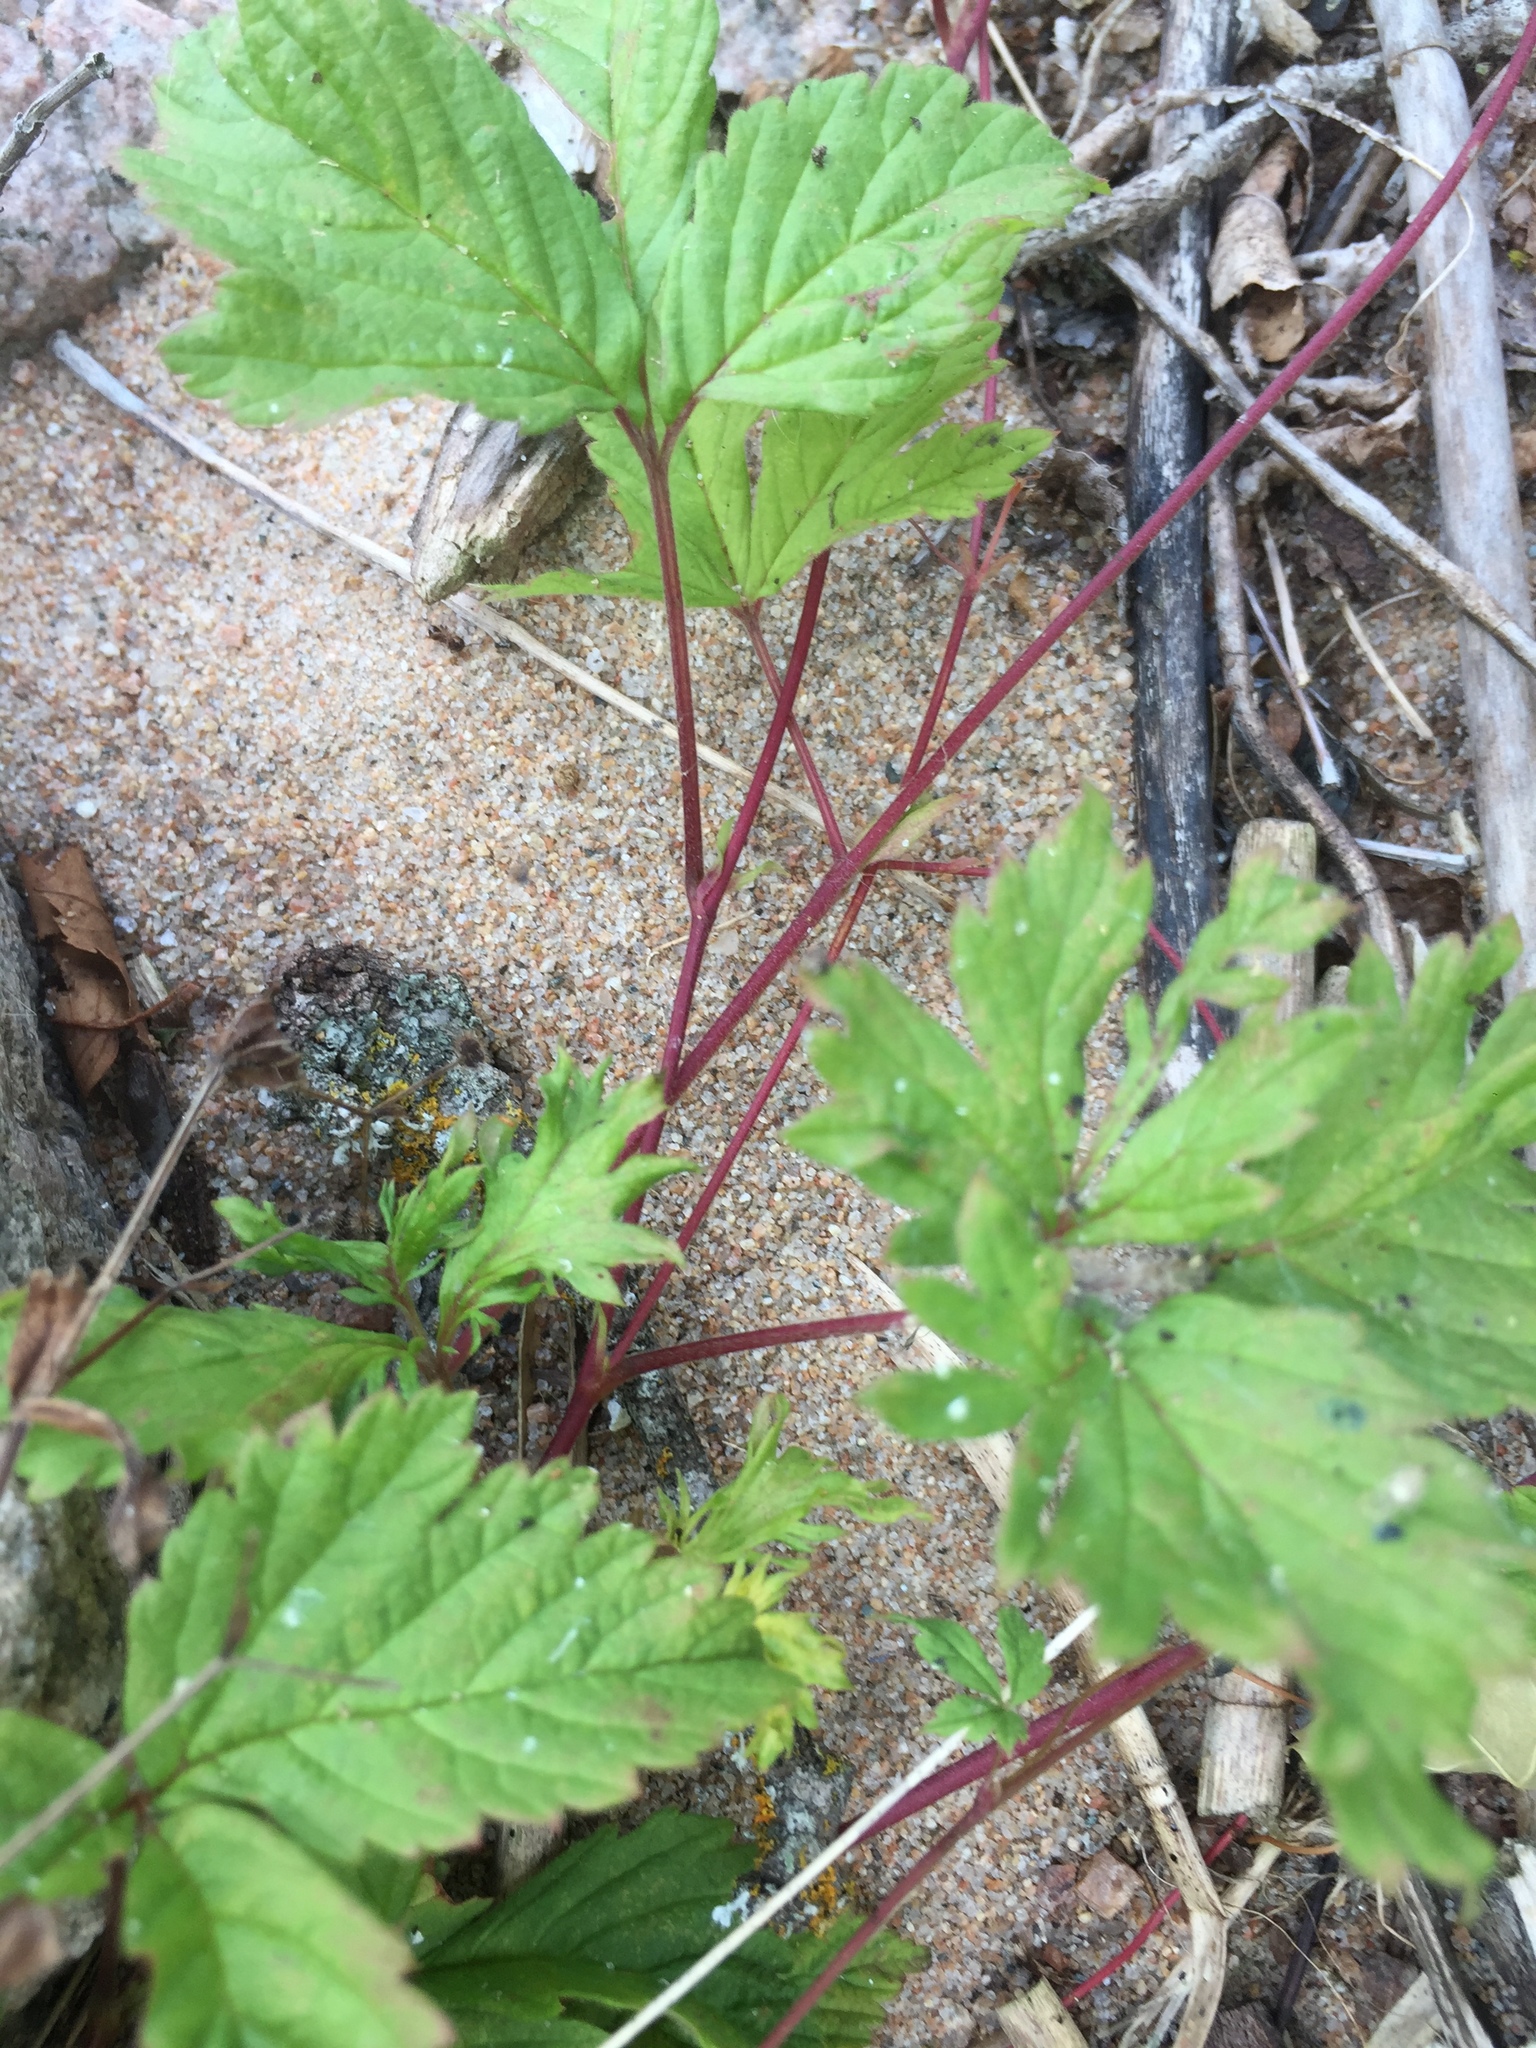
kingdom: Plantae
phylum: Tracheophyta
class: Magnoliopsida
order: Rosales
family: Rosaceae
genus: Rubus
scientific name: Rubus pubescens
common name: Dwarf raspberry
